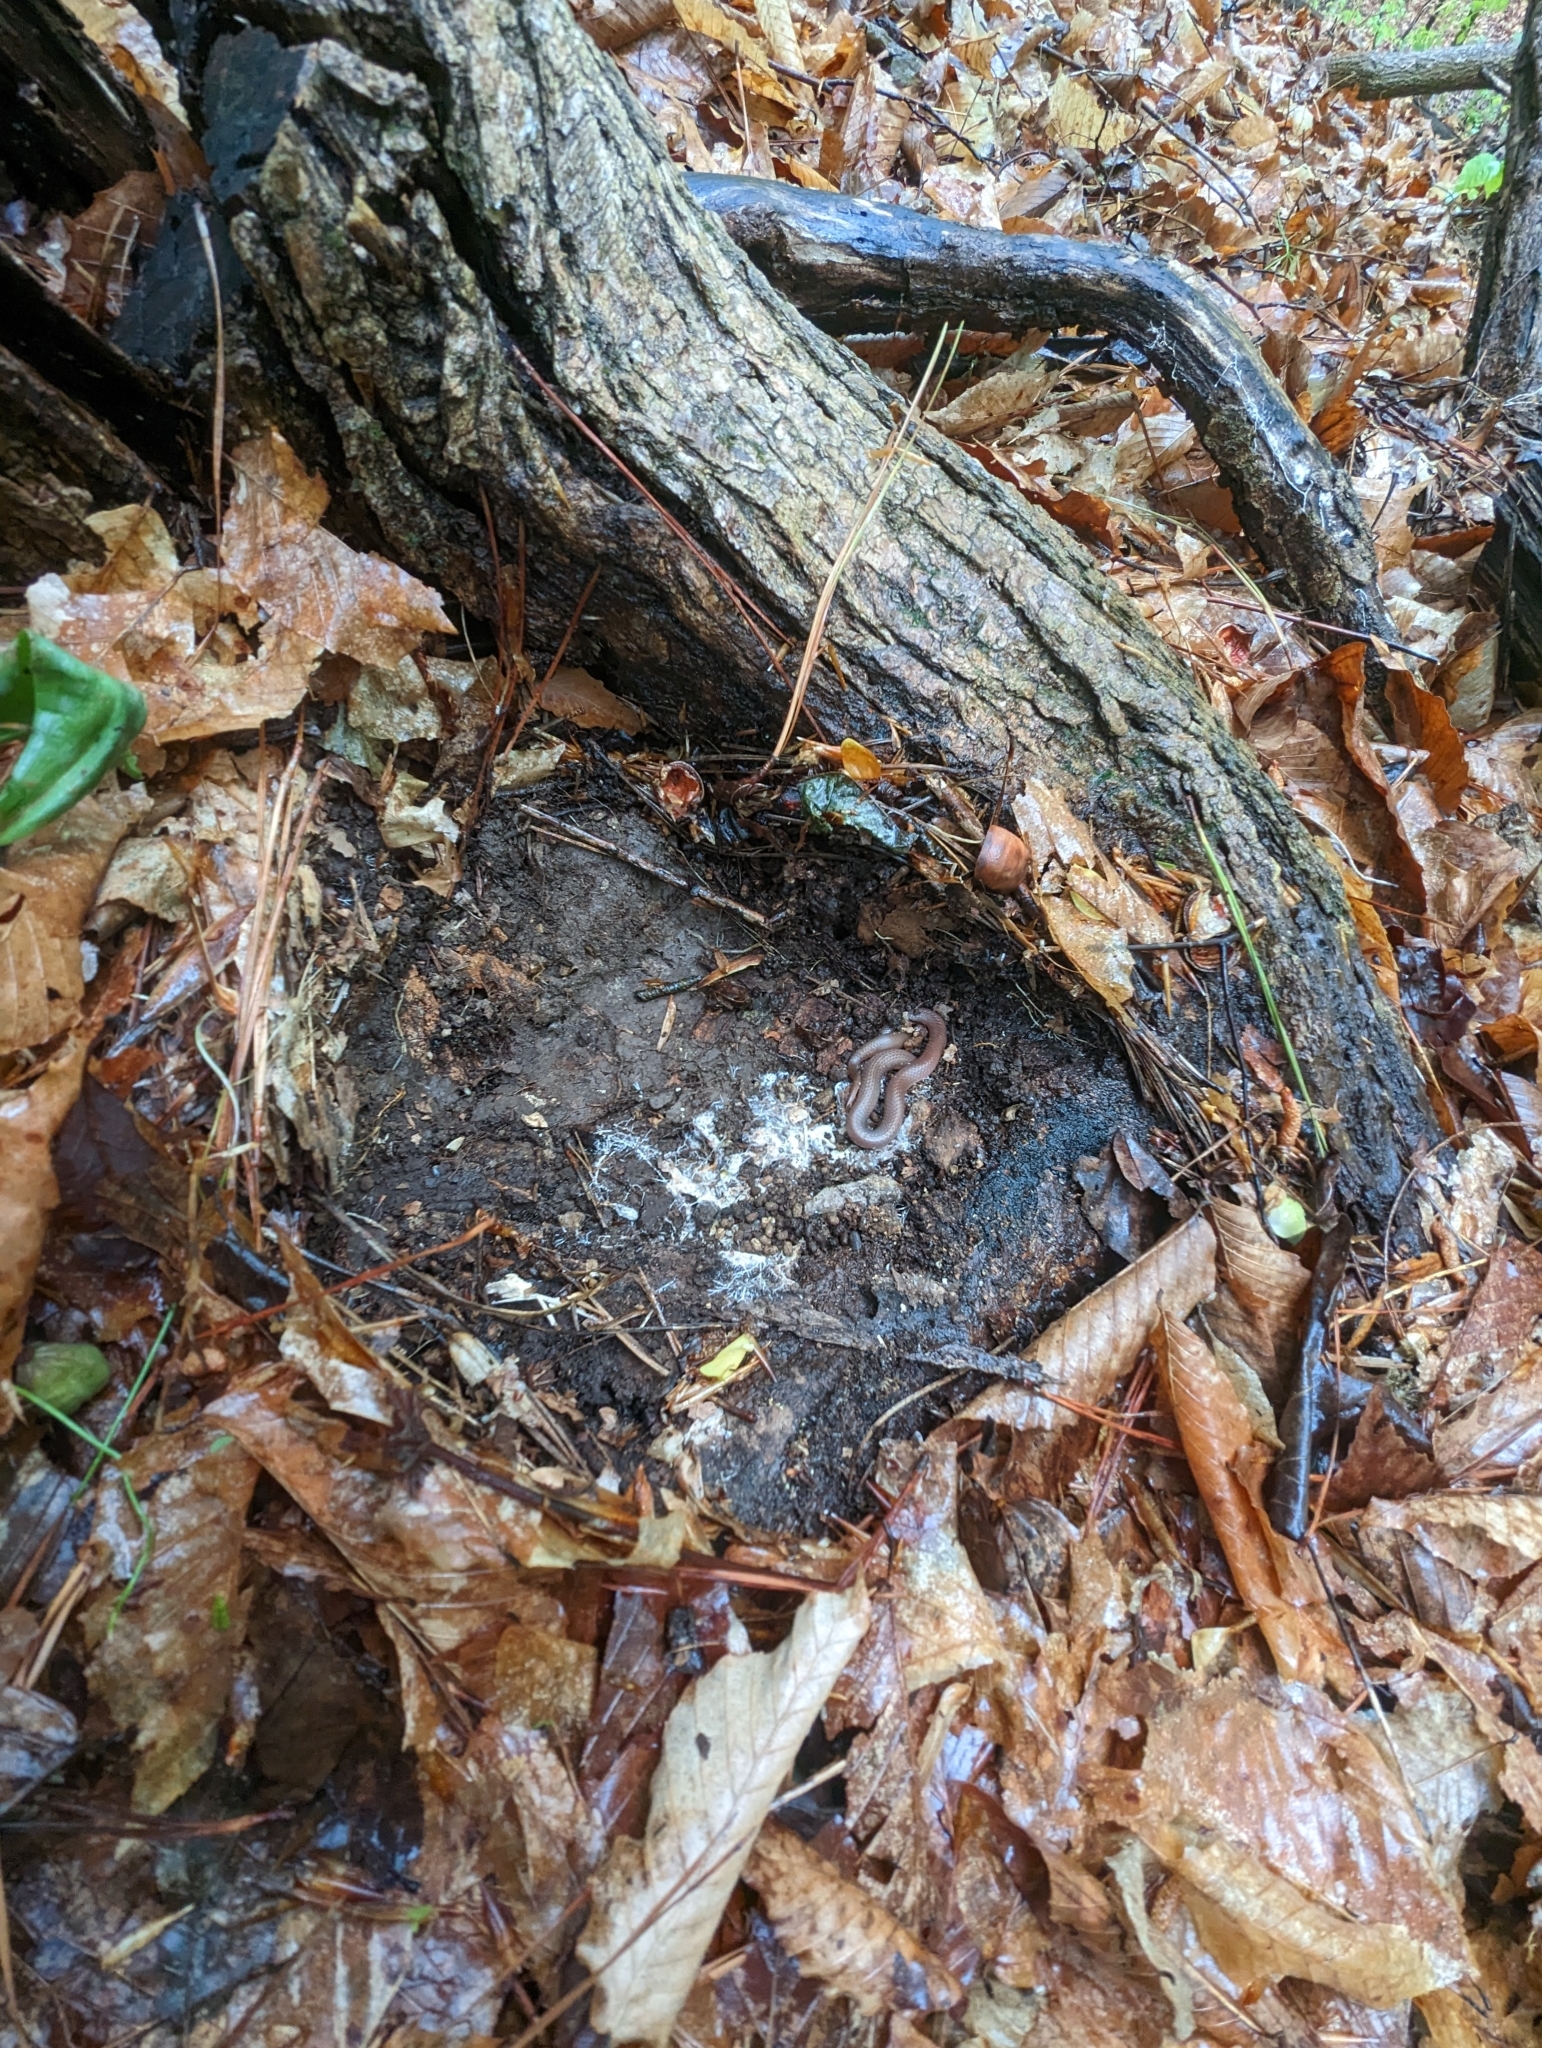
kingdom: Animalia
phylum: Chordata
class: Squamata
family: Colubridae
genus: Carphophis
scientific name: Carphophis amoenus
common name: Eastern worm snake
